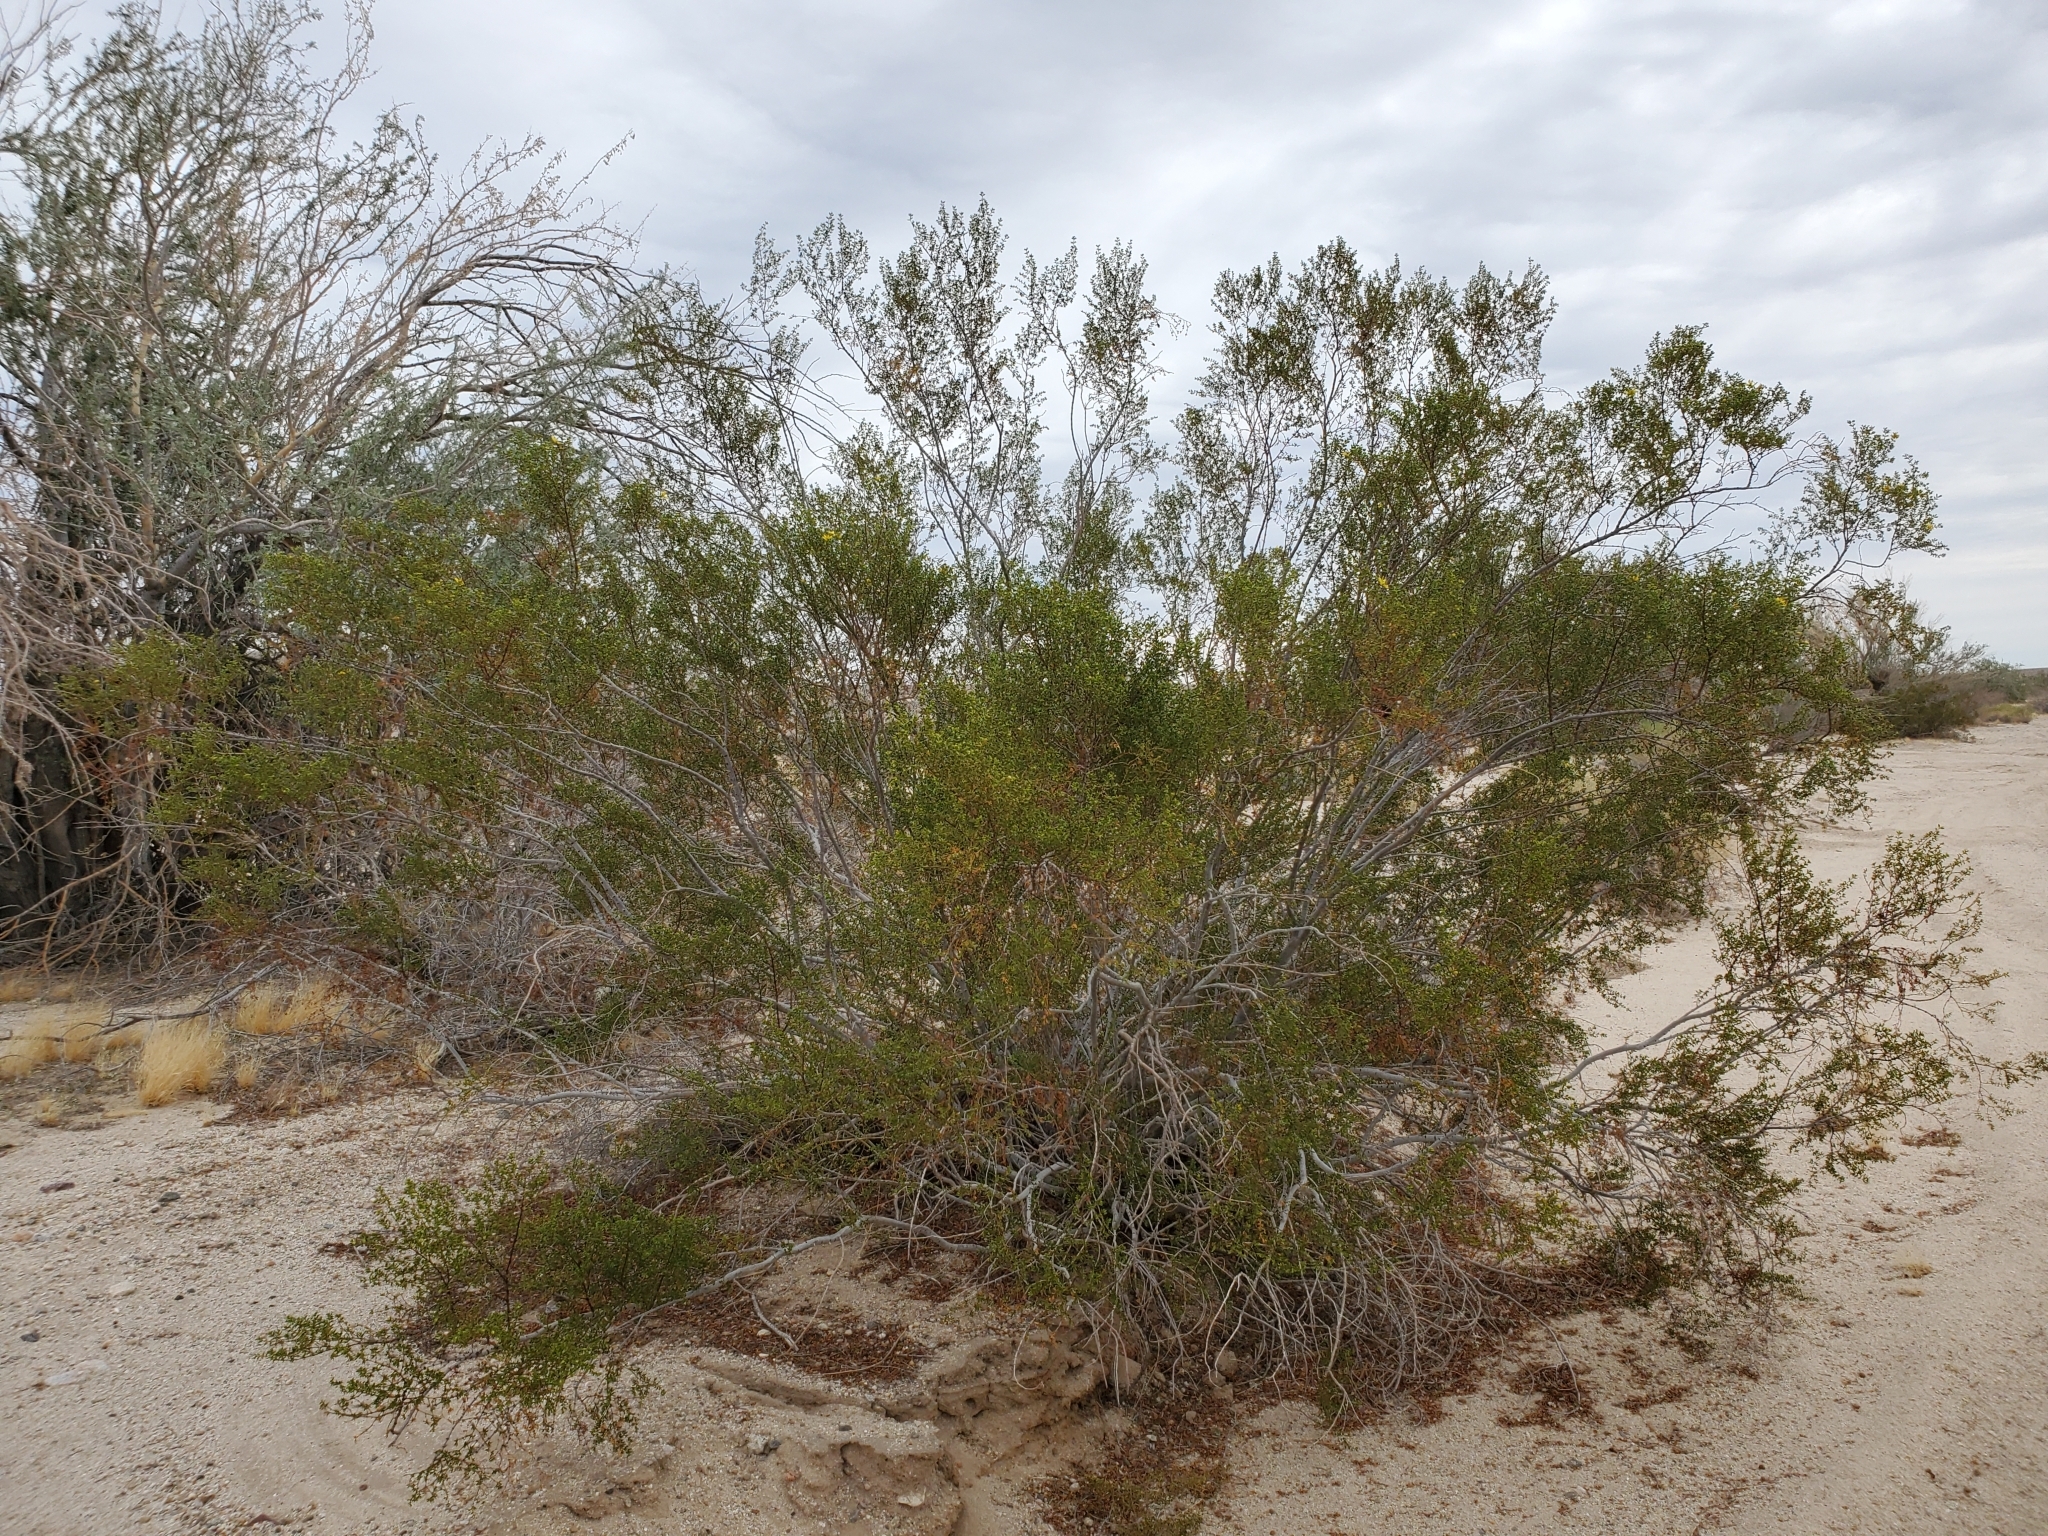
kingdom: Plantae
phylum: Tracheophyta
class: Magnoliopsida
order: Zygophyllales
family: Zygophyllaceae
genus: Larrea
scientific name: Larrea tridentata
